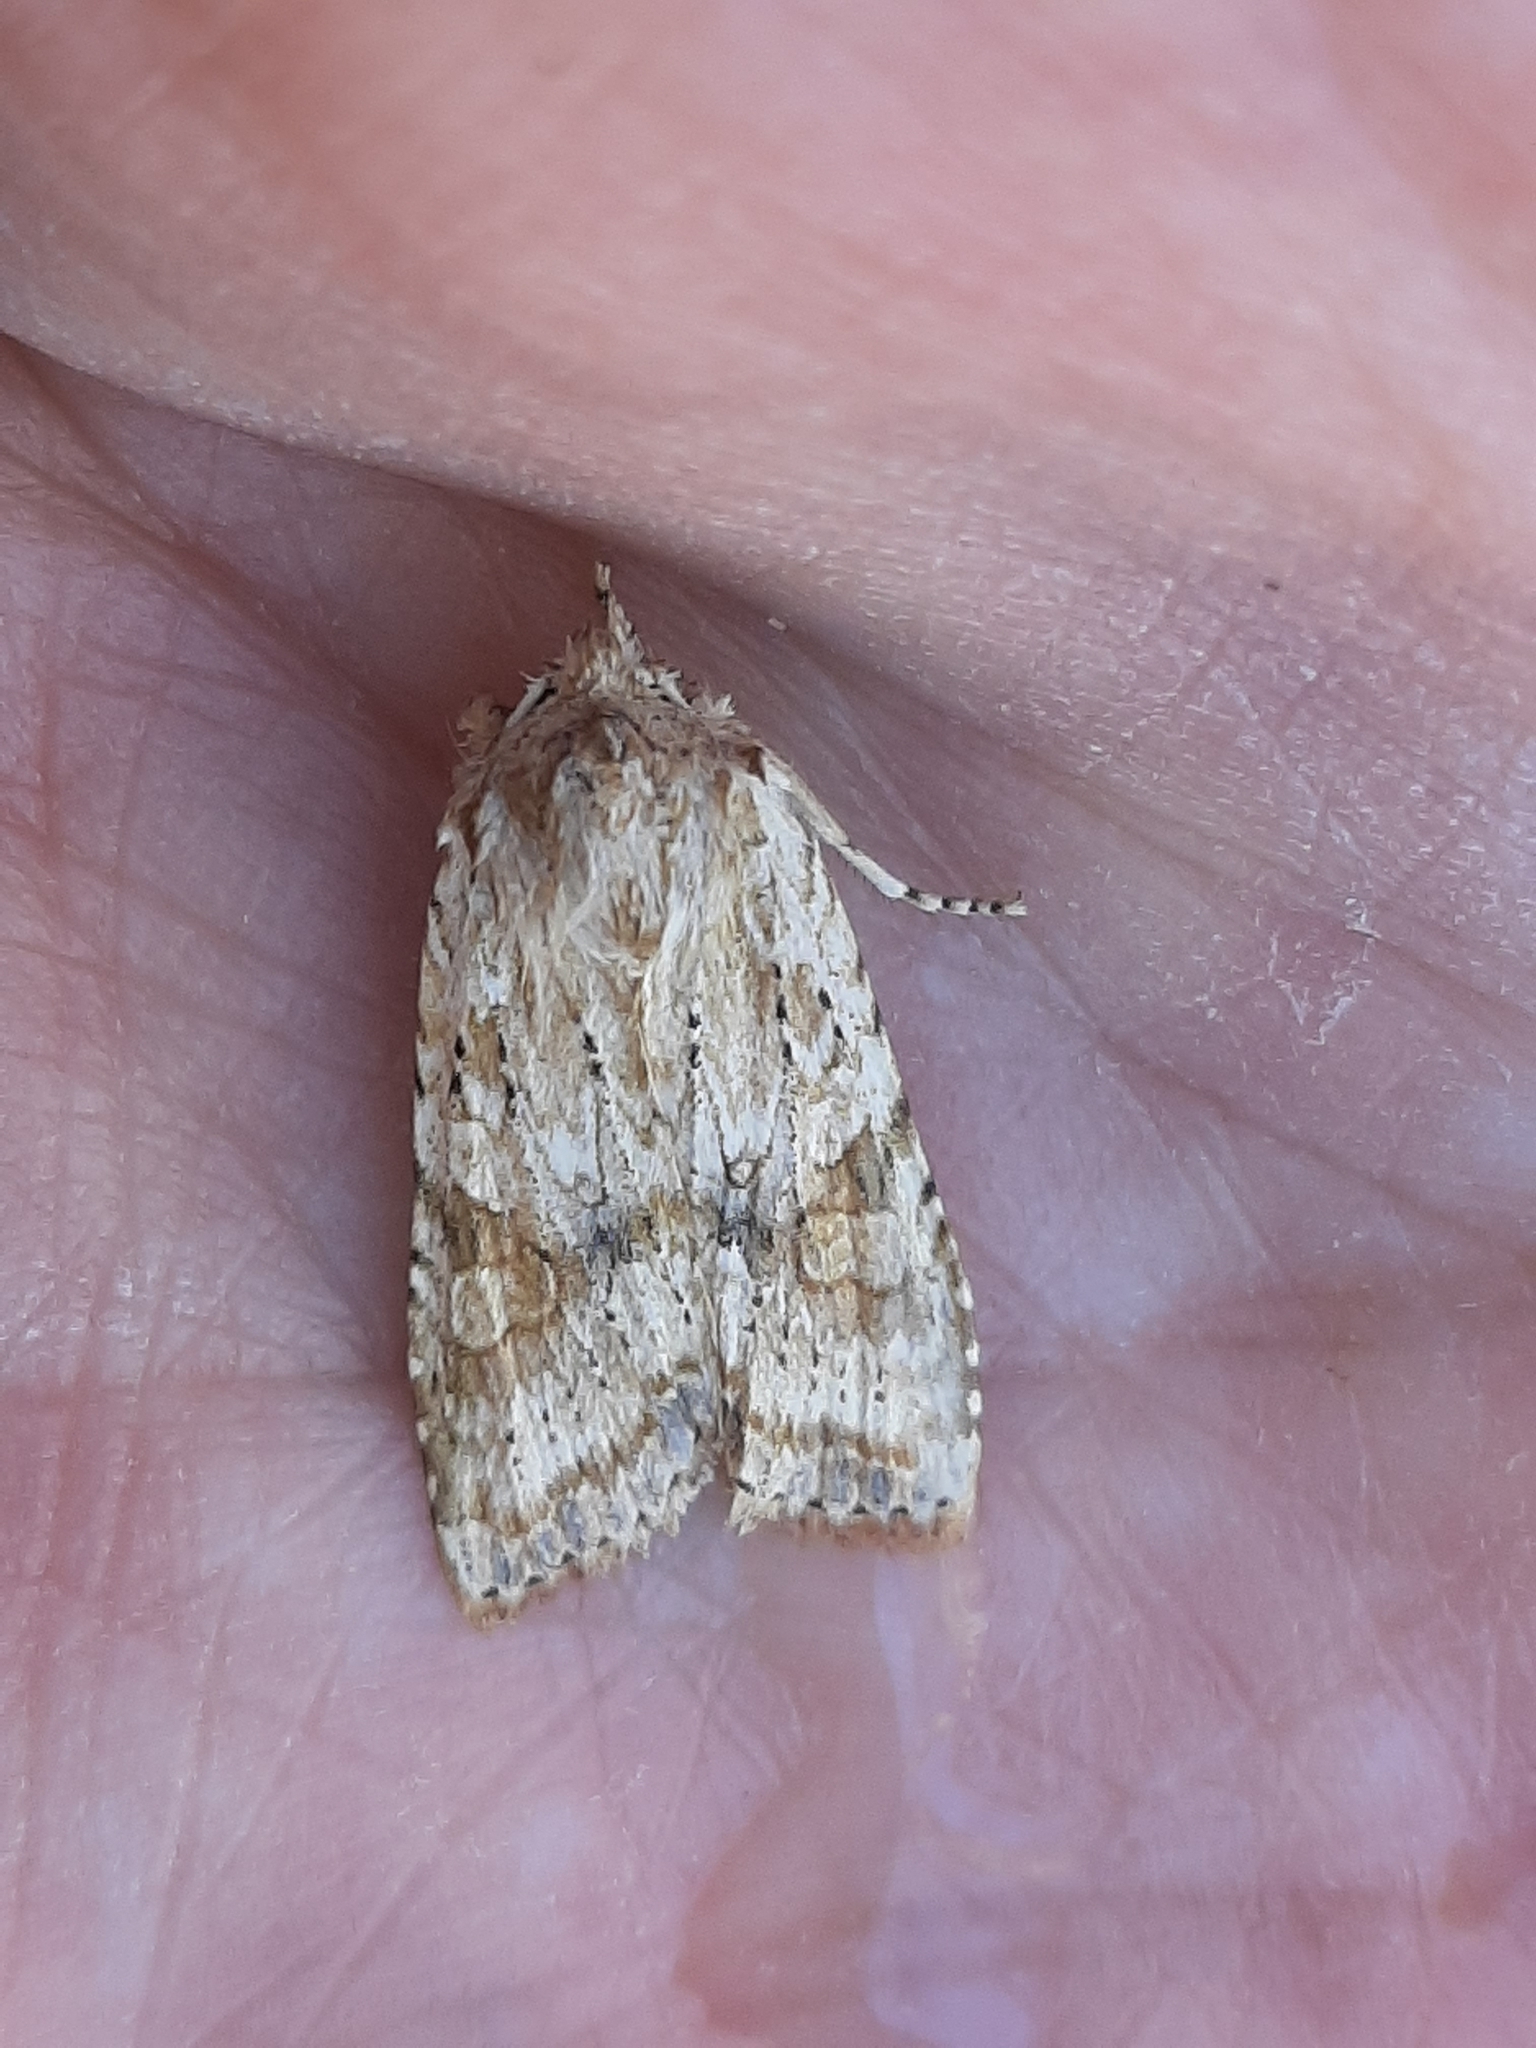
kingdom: Animalia
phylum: Arthropoda
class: Insecta
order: Lepidoptera
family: Noctuidae
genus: Lithophane
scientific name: Lithophane bethunei
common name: Bethune's pinion moth
